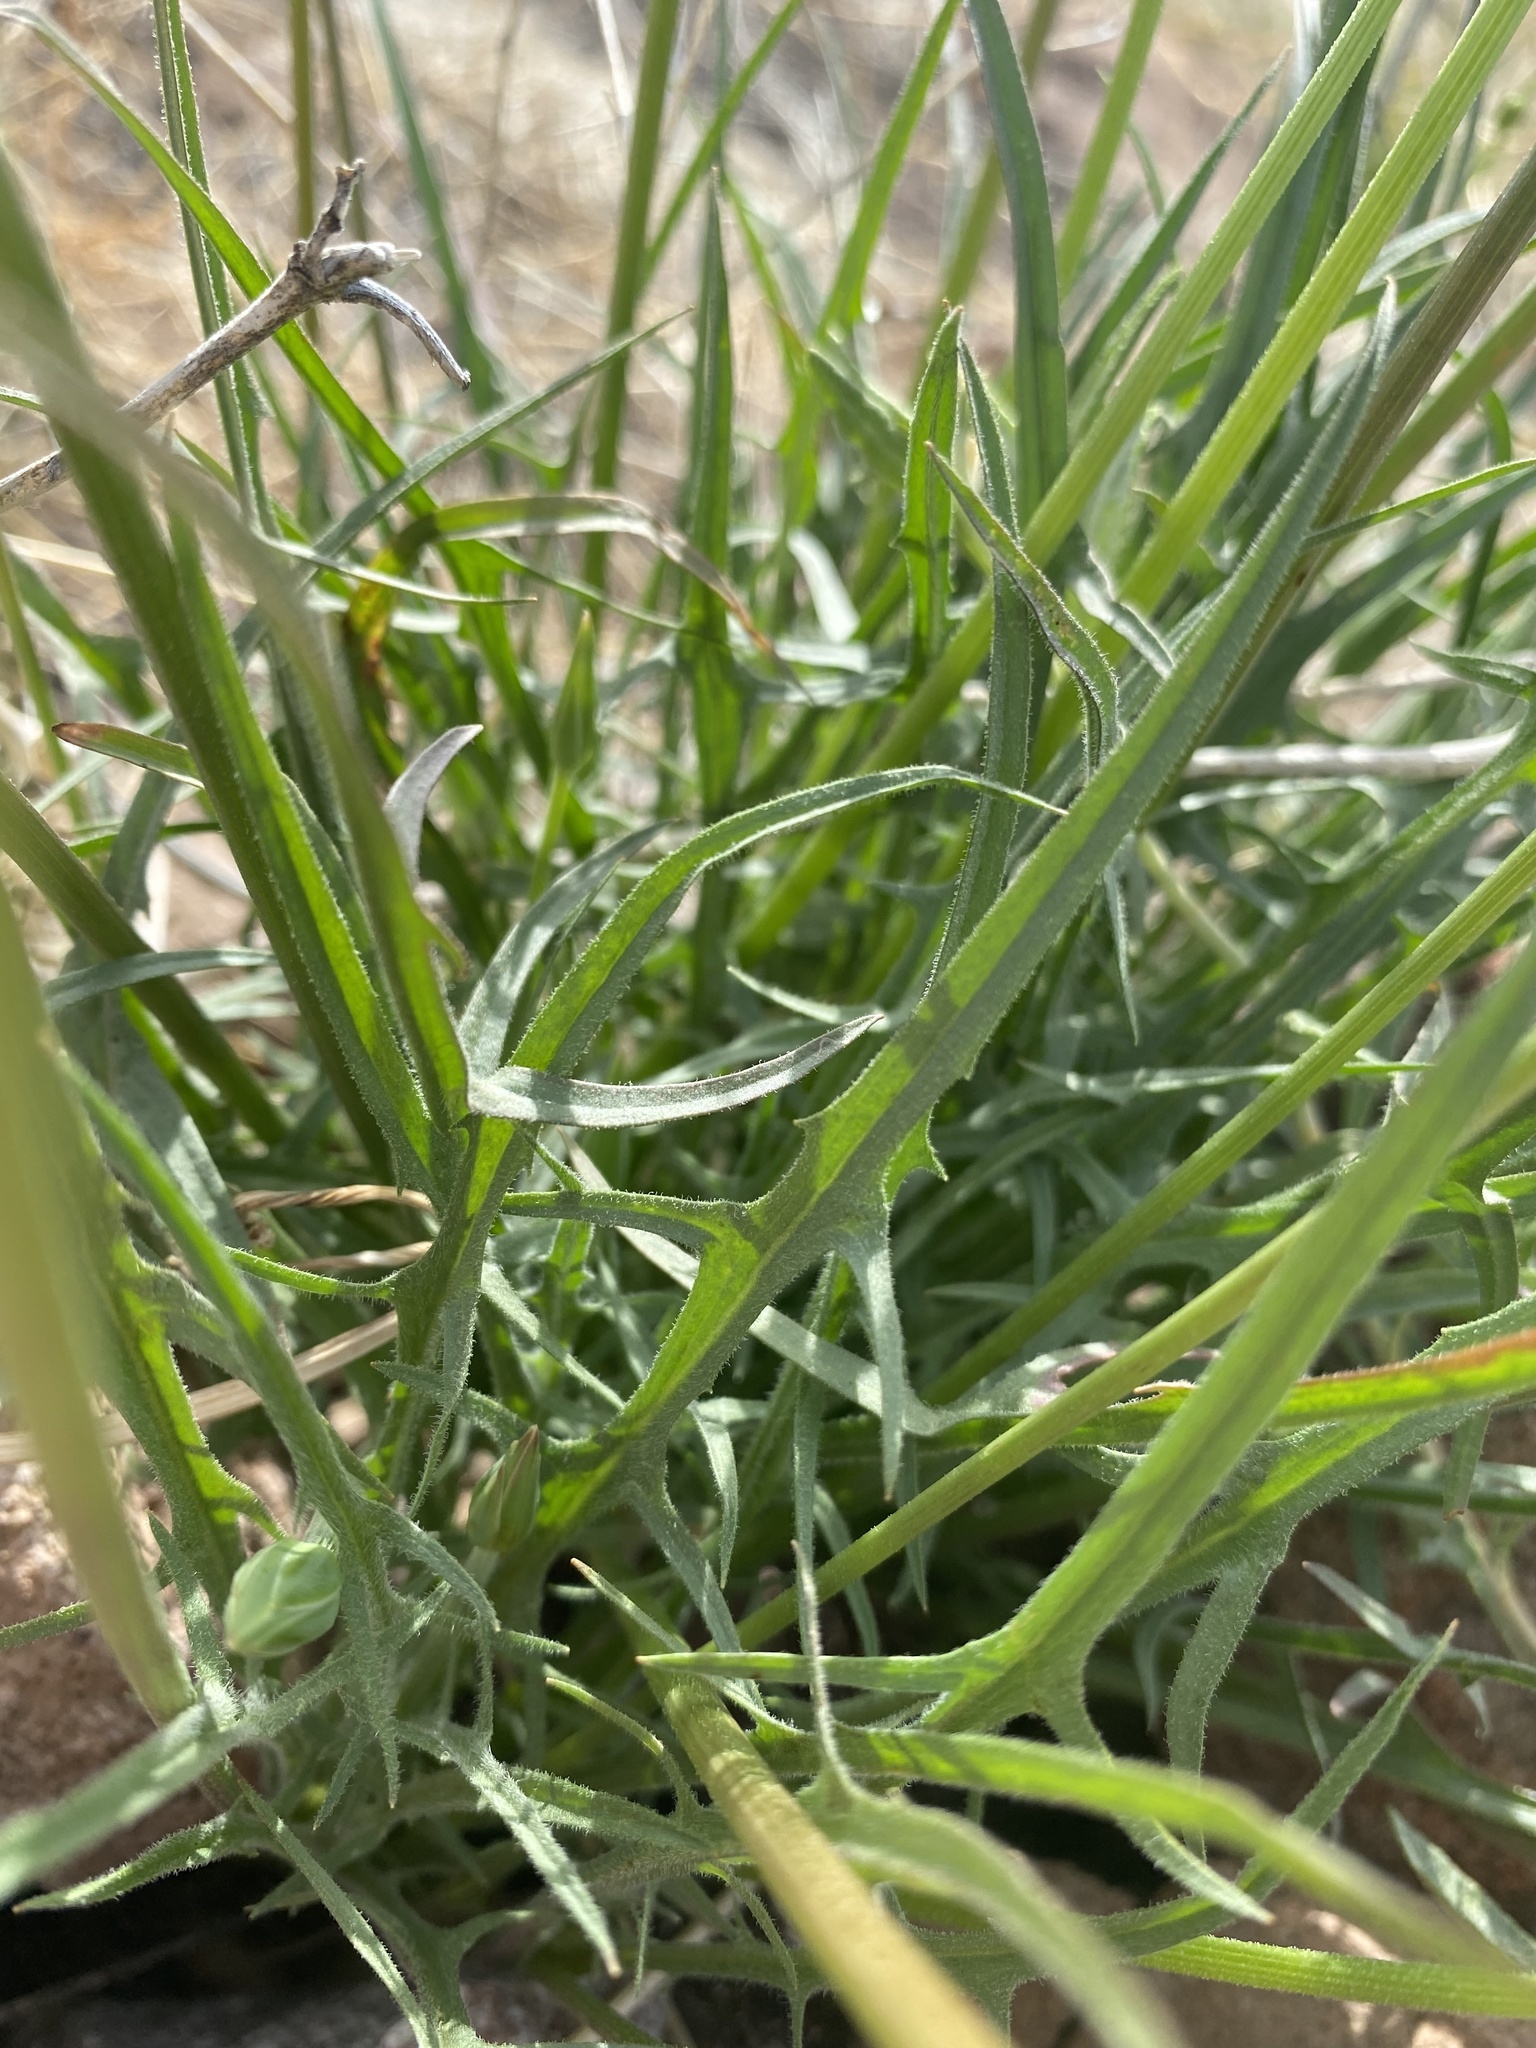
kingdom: Plantae
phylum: Tracheophyta
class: Magnoliopsida
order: Asterales
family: Asteraceae
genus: Microseris
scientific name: Microseris lindleyi
